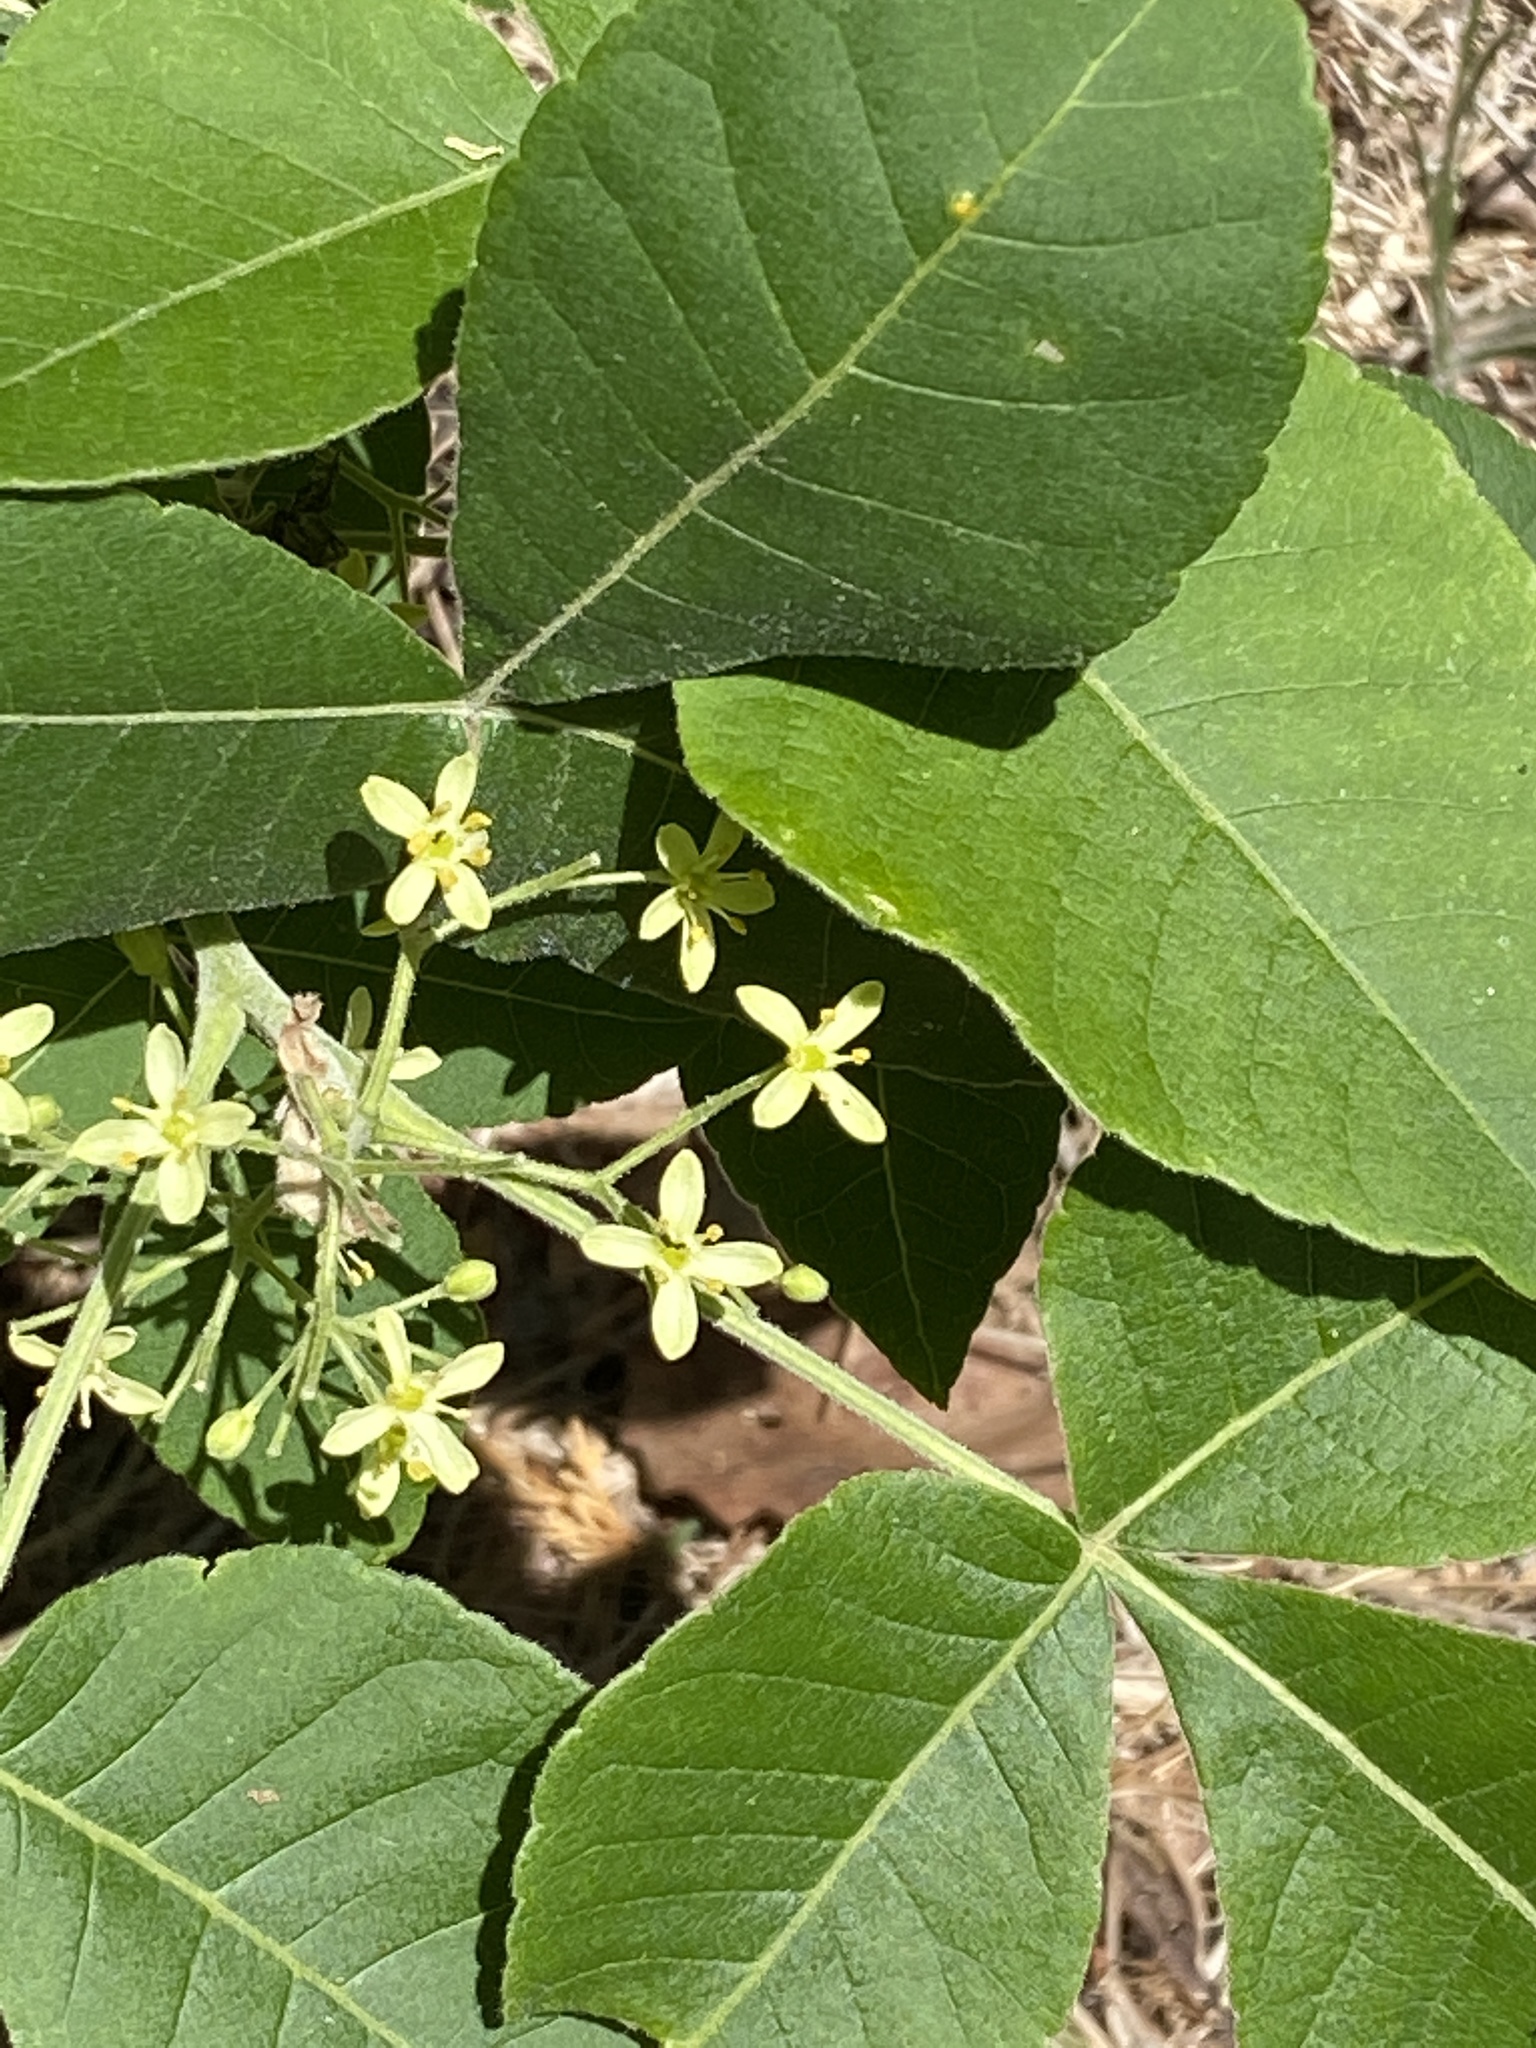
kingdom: Plantae
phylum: Tracheophyta
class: Magnoliopsida
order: Sapindales
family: Rutaceae
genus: Ptelea
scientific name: Ptelea trifoliata
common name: Common hop-tree
